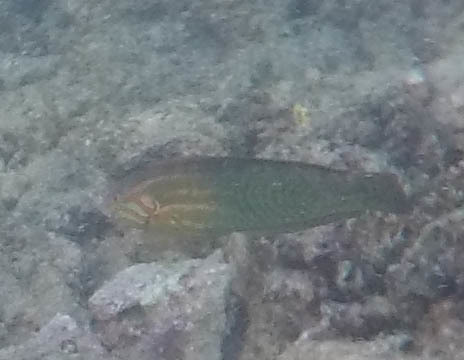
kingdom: Animalia
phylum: Chordata
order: Perciformes
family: Labridae
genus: Coris
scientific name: Coris venusta
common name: Elegant coris
